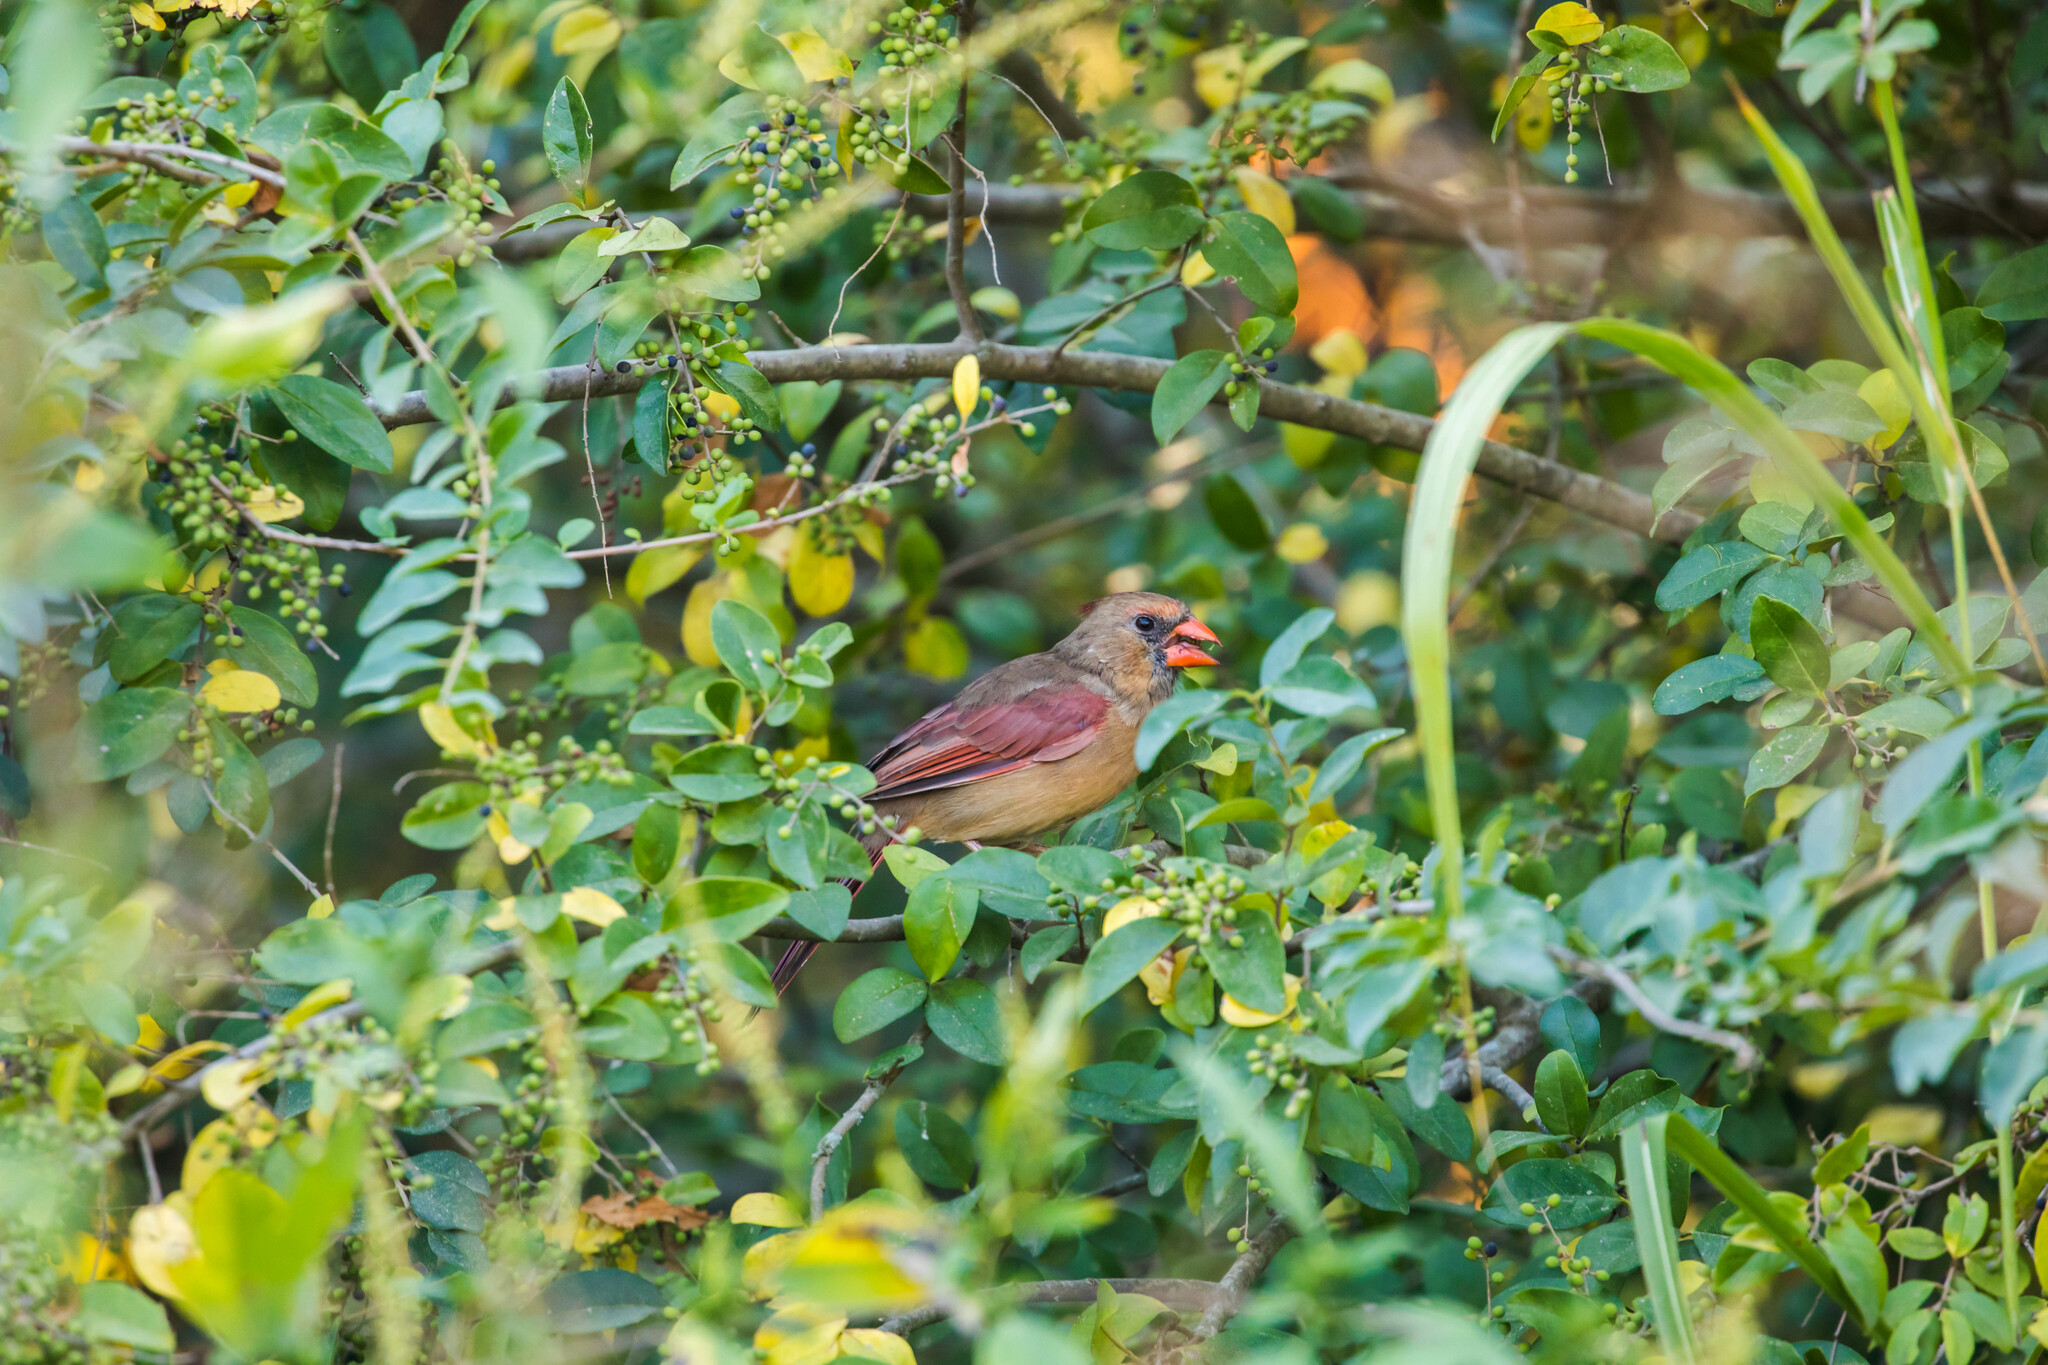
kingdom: Animalia
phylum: Chordata
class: Aves
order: Passeriformes
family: Cardinalidae
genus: Cardinalis
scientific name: Cardinalis cardinalis
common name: Northern cardinal
